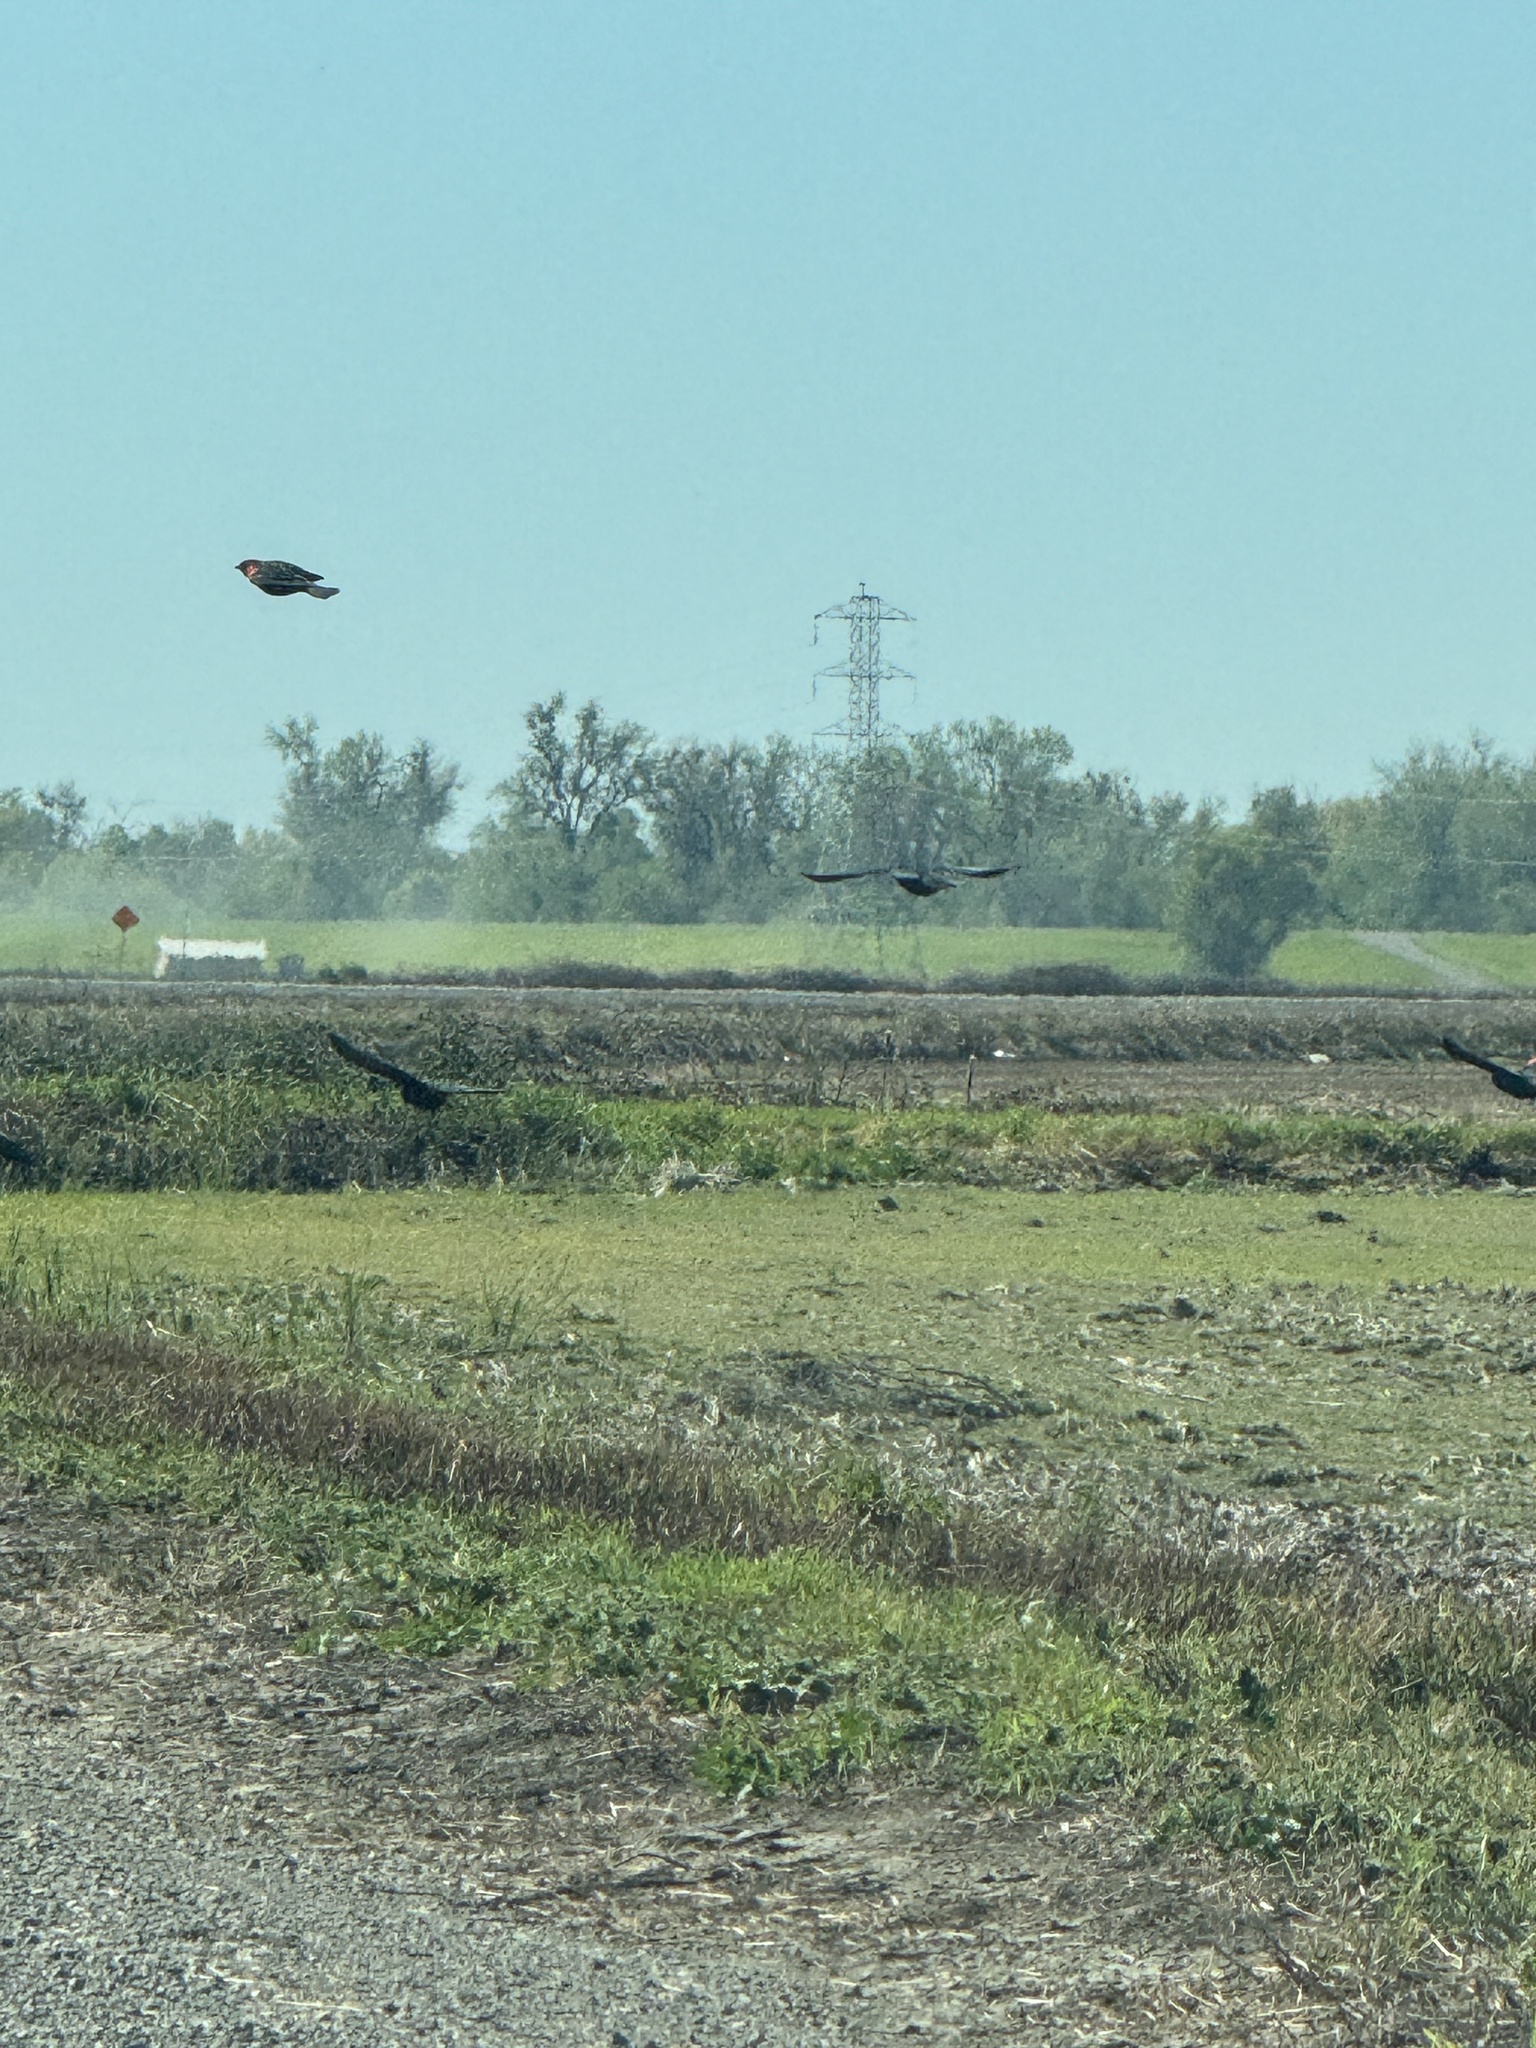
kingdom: Animalia
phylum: Chordata
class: Aves
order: Passeriformes
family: Icteridae
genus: Agelaius
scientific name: Agelaius phoeniceus
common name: Red-winged blackbird
